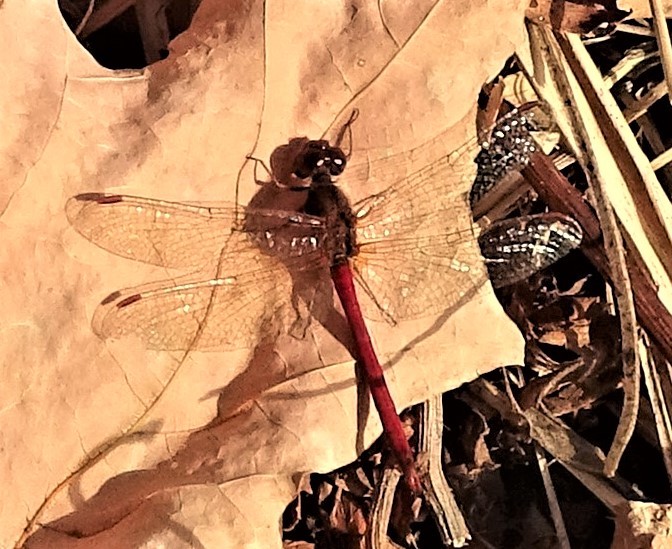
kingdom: Animalia
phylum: Arthropoda
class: Insecta
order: Odonata
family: Libellulidae
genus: Sympetrum
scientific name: Sympetrum vicinum
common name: Autumn meadowhawk
